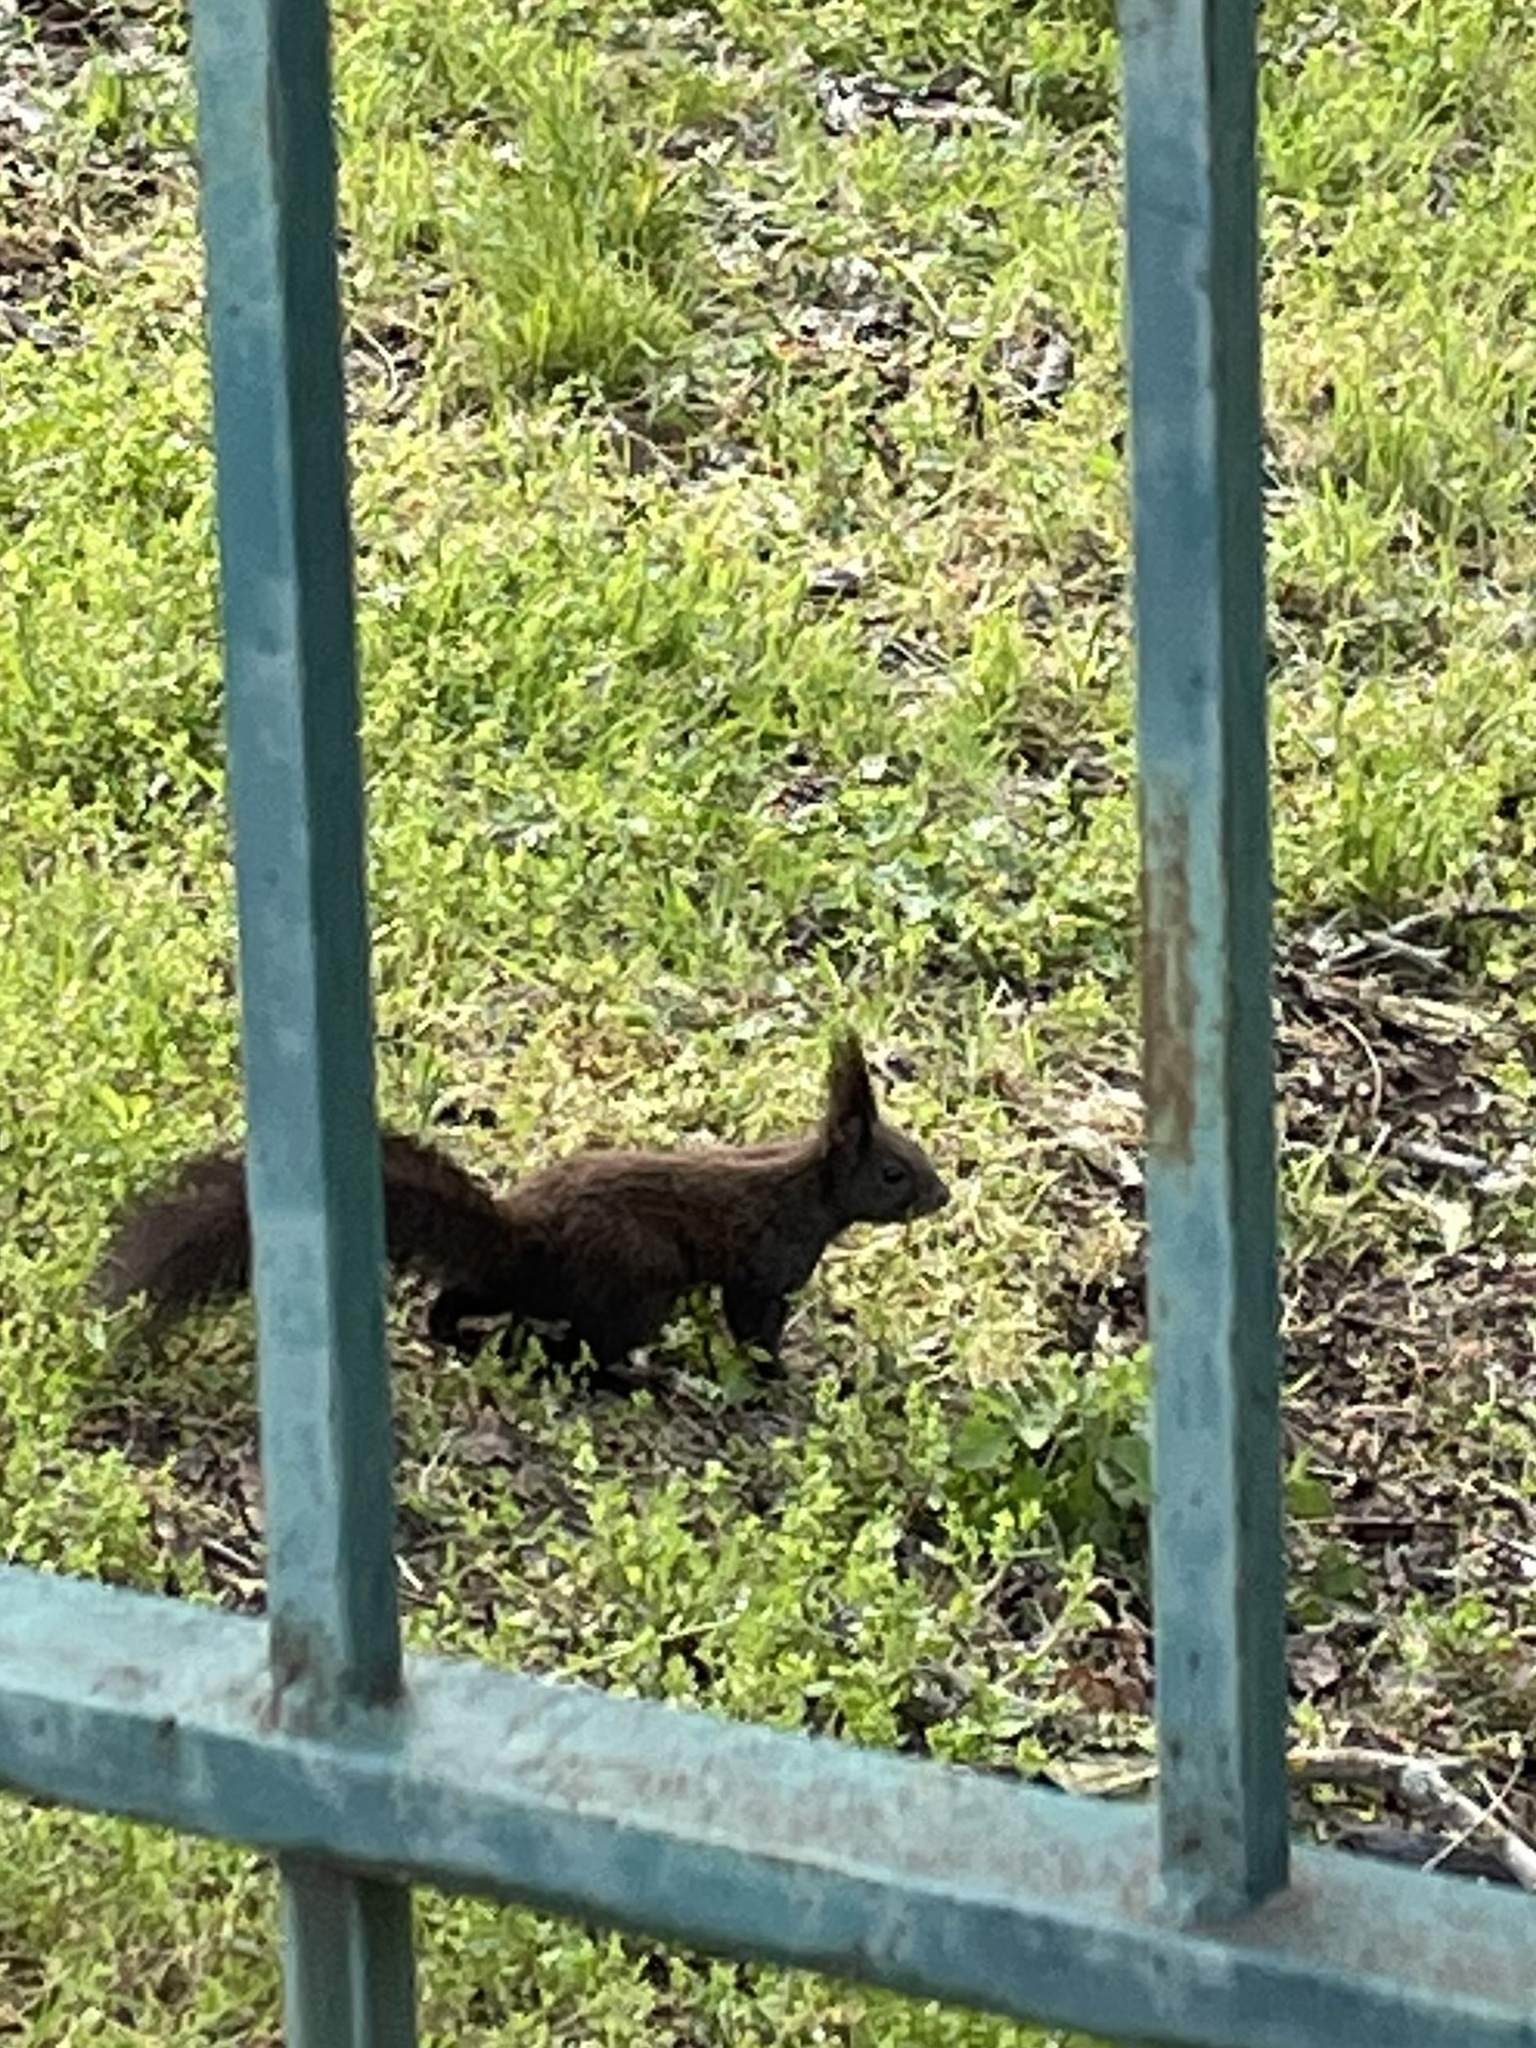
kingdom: Animalia
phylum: Chordata
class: Mammalia
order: Rodentia
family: Sciuridae
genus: Sciurus
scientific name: Sciurus vulgaris
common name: Eurasian red squirrel
